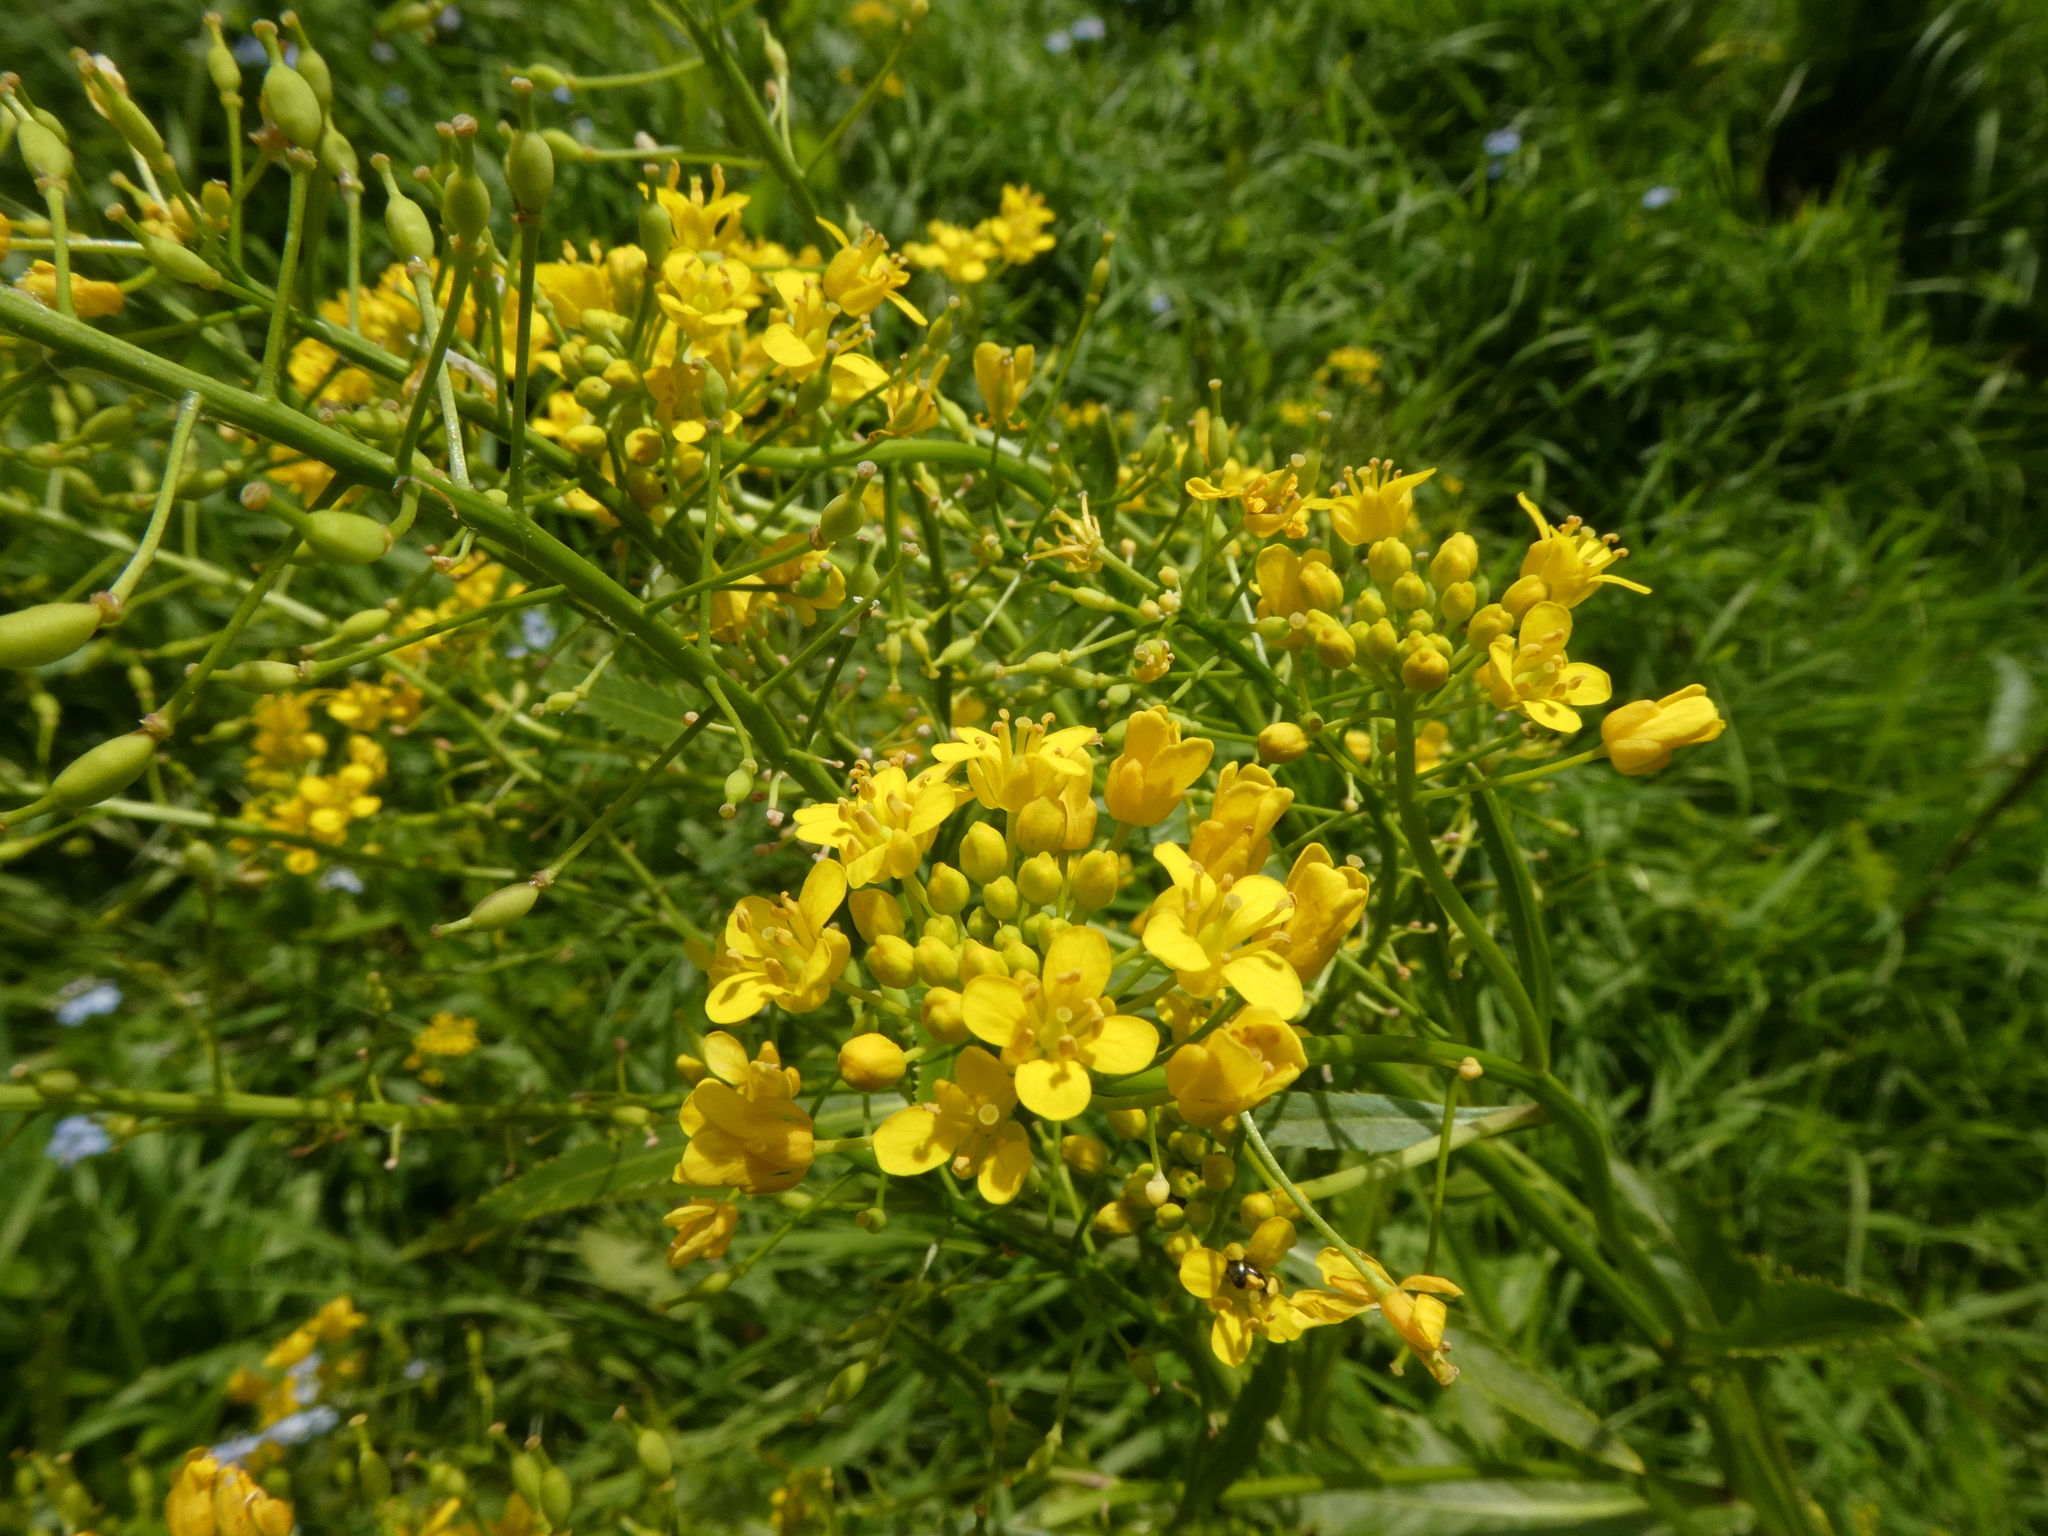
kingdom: Plantae
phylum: Tracheophyta
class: Magnoliopsida
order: Brassicales
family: Brassicaceae
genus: Rorippa
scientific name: Rorippa amphibia
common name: Great yellow-cress
